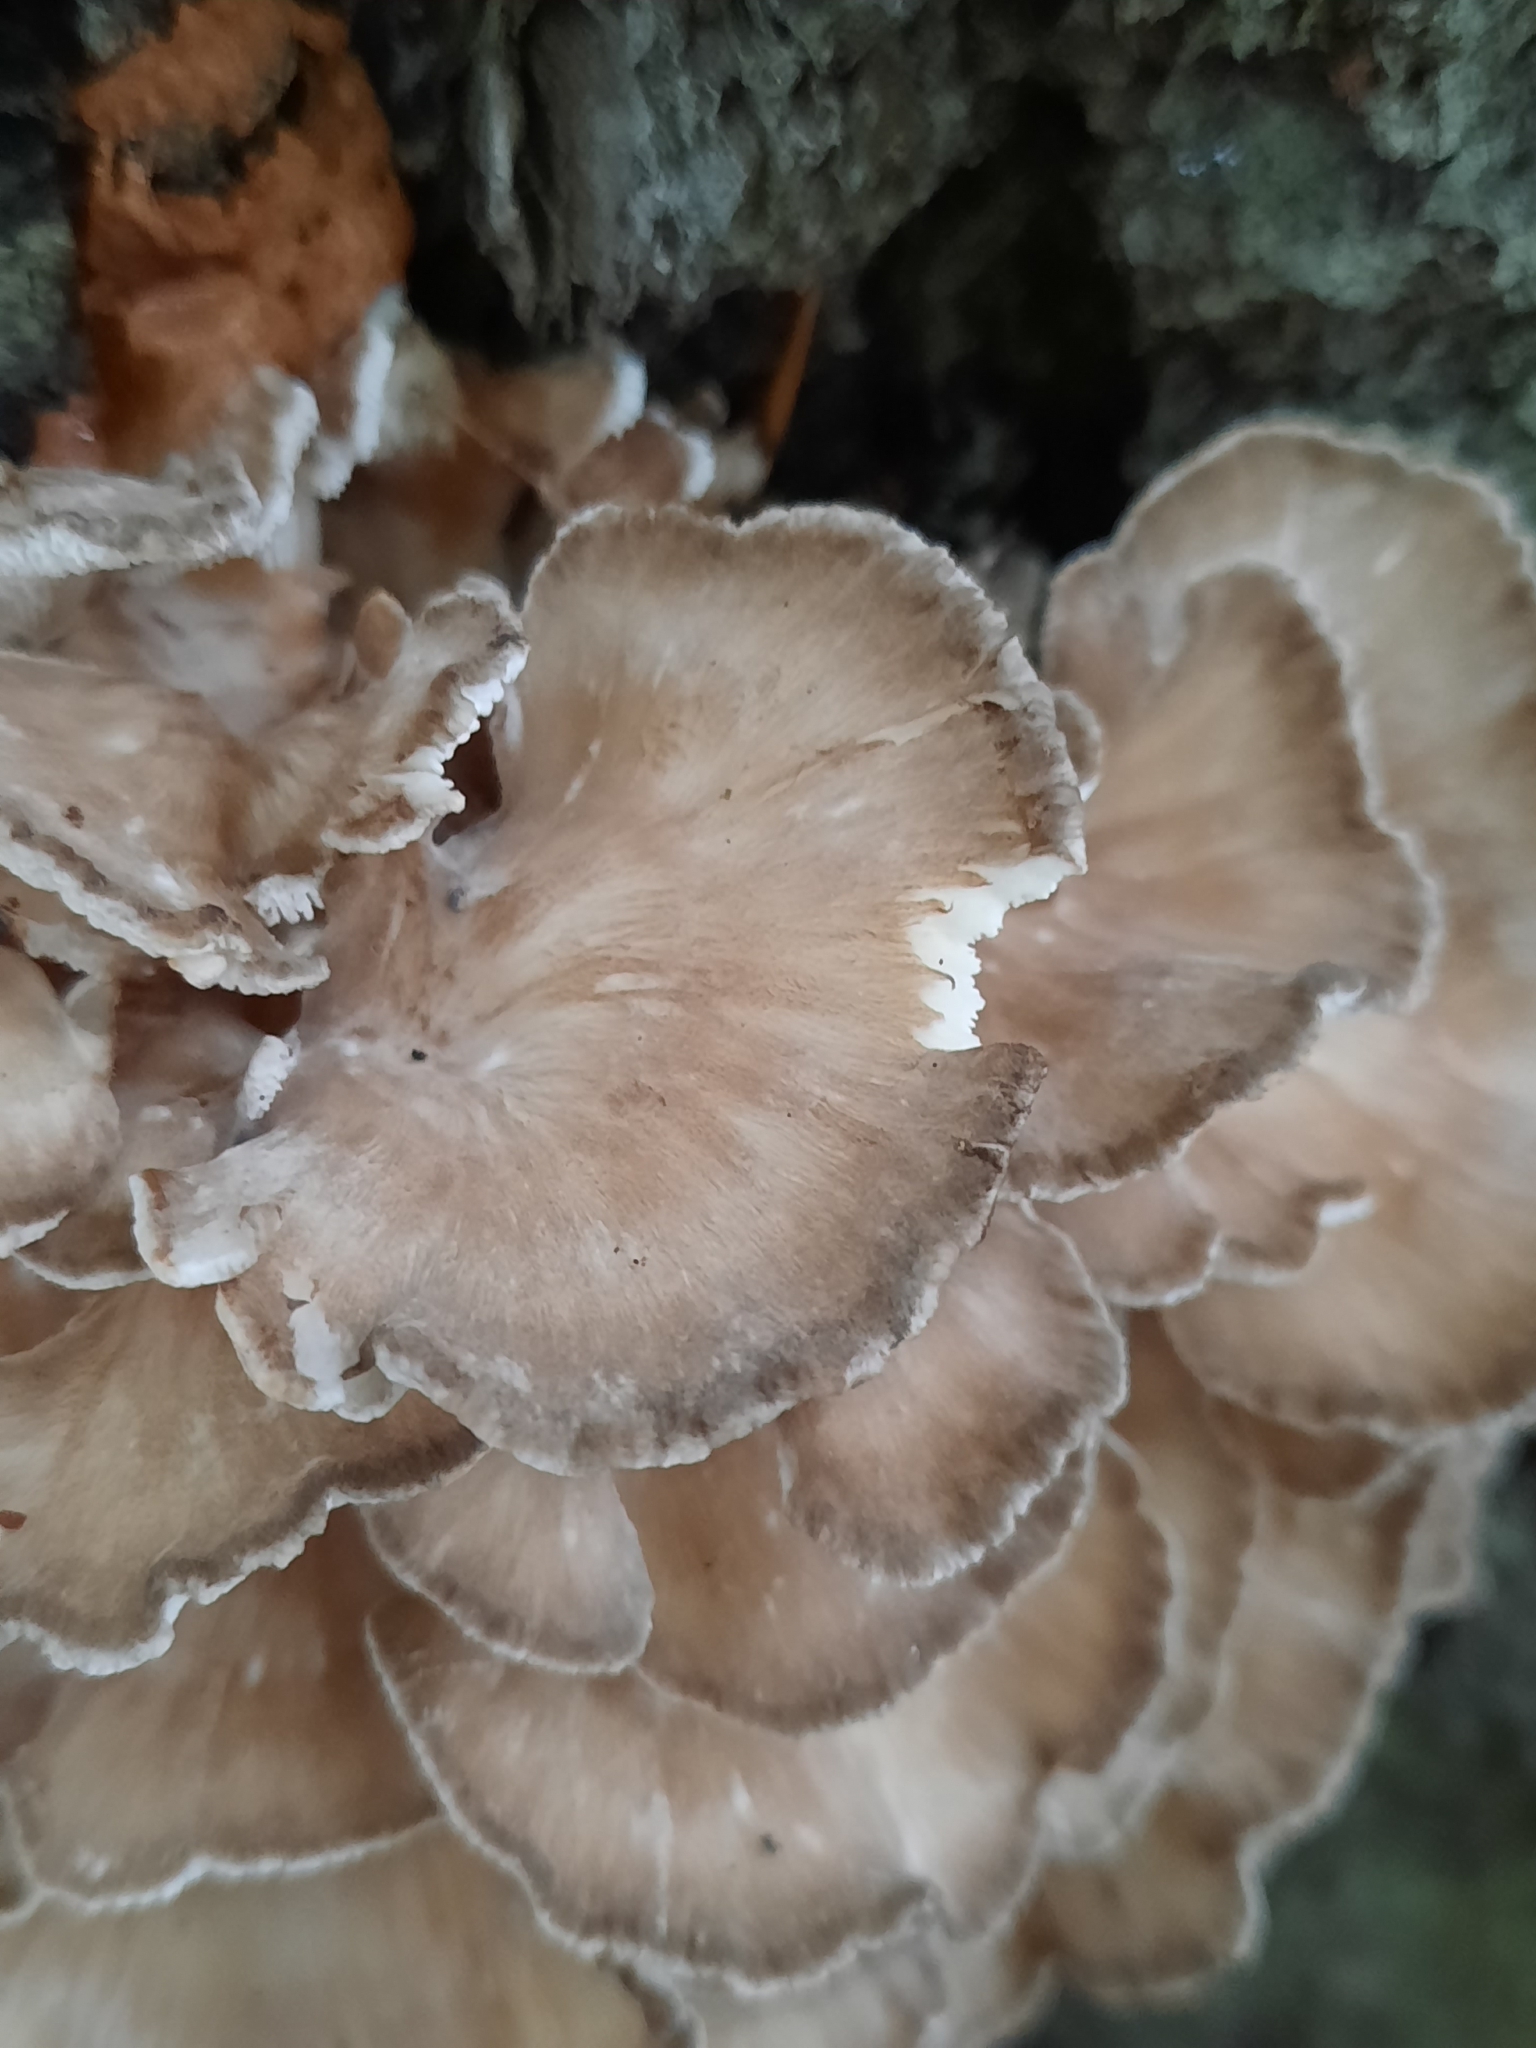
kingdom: Fungi
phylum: Basidiomycota
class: Agaricomycetes
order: Polyporales
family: Grifolaceae
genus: Grifola
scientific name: Grifola frondosa
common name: Hen of the woods
